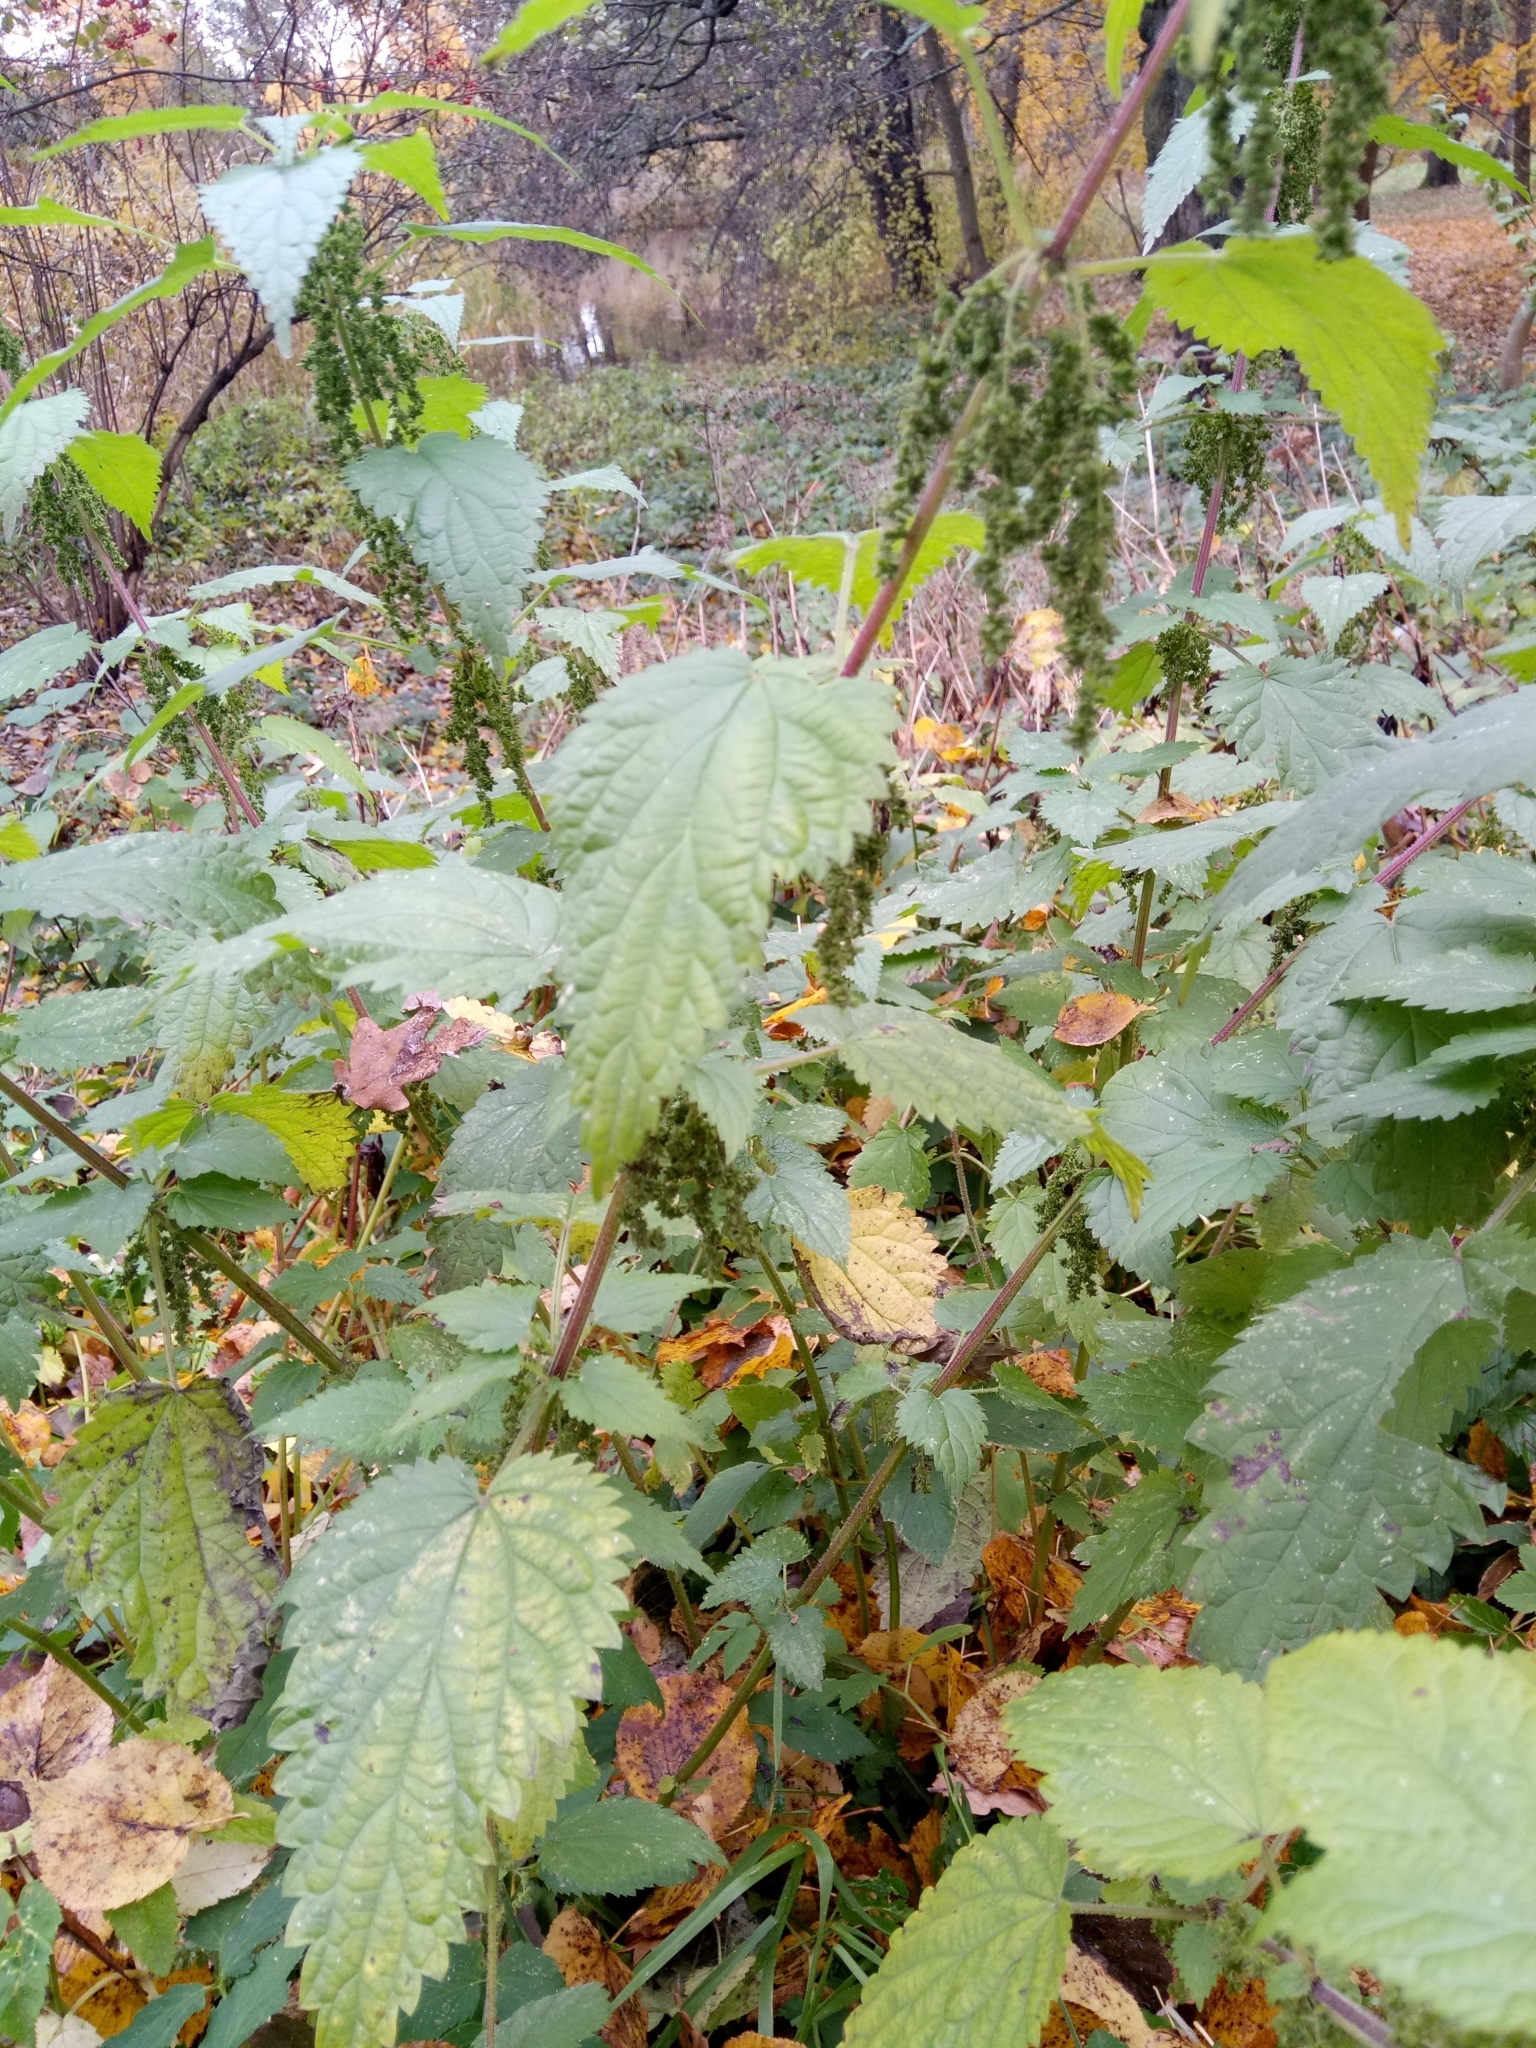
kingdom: Plantae
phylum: Tracheophyta
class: Magnoliopsida
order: Rosales
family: Urticaceae
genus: Urtica
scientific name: Urtica dioica
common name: Common nettle
